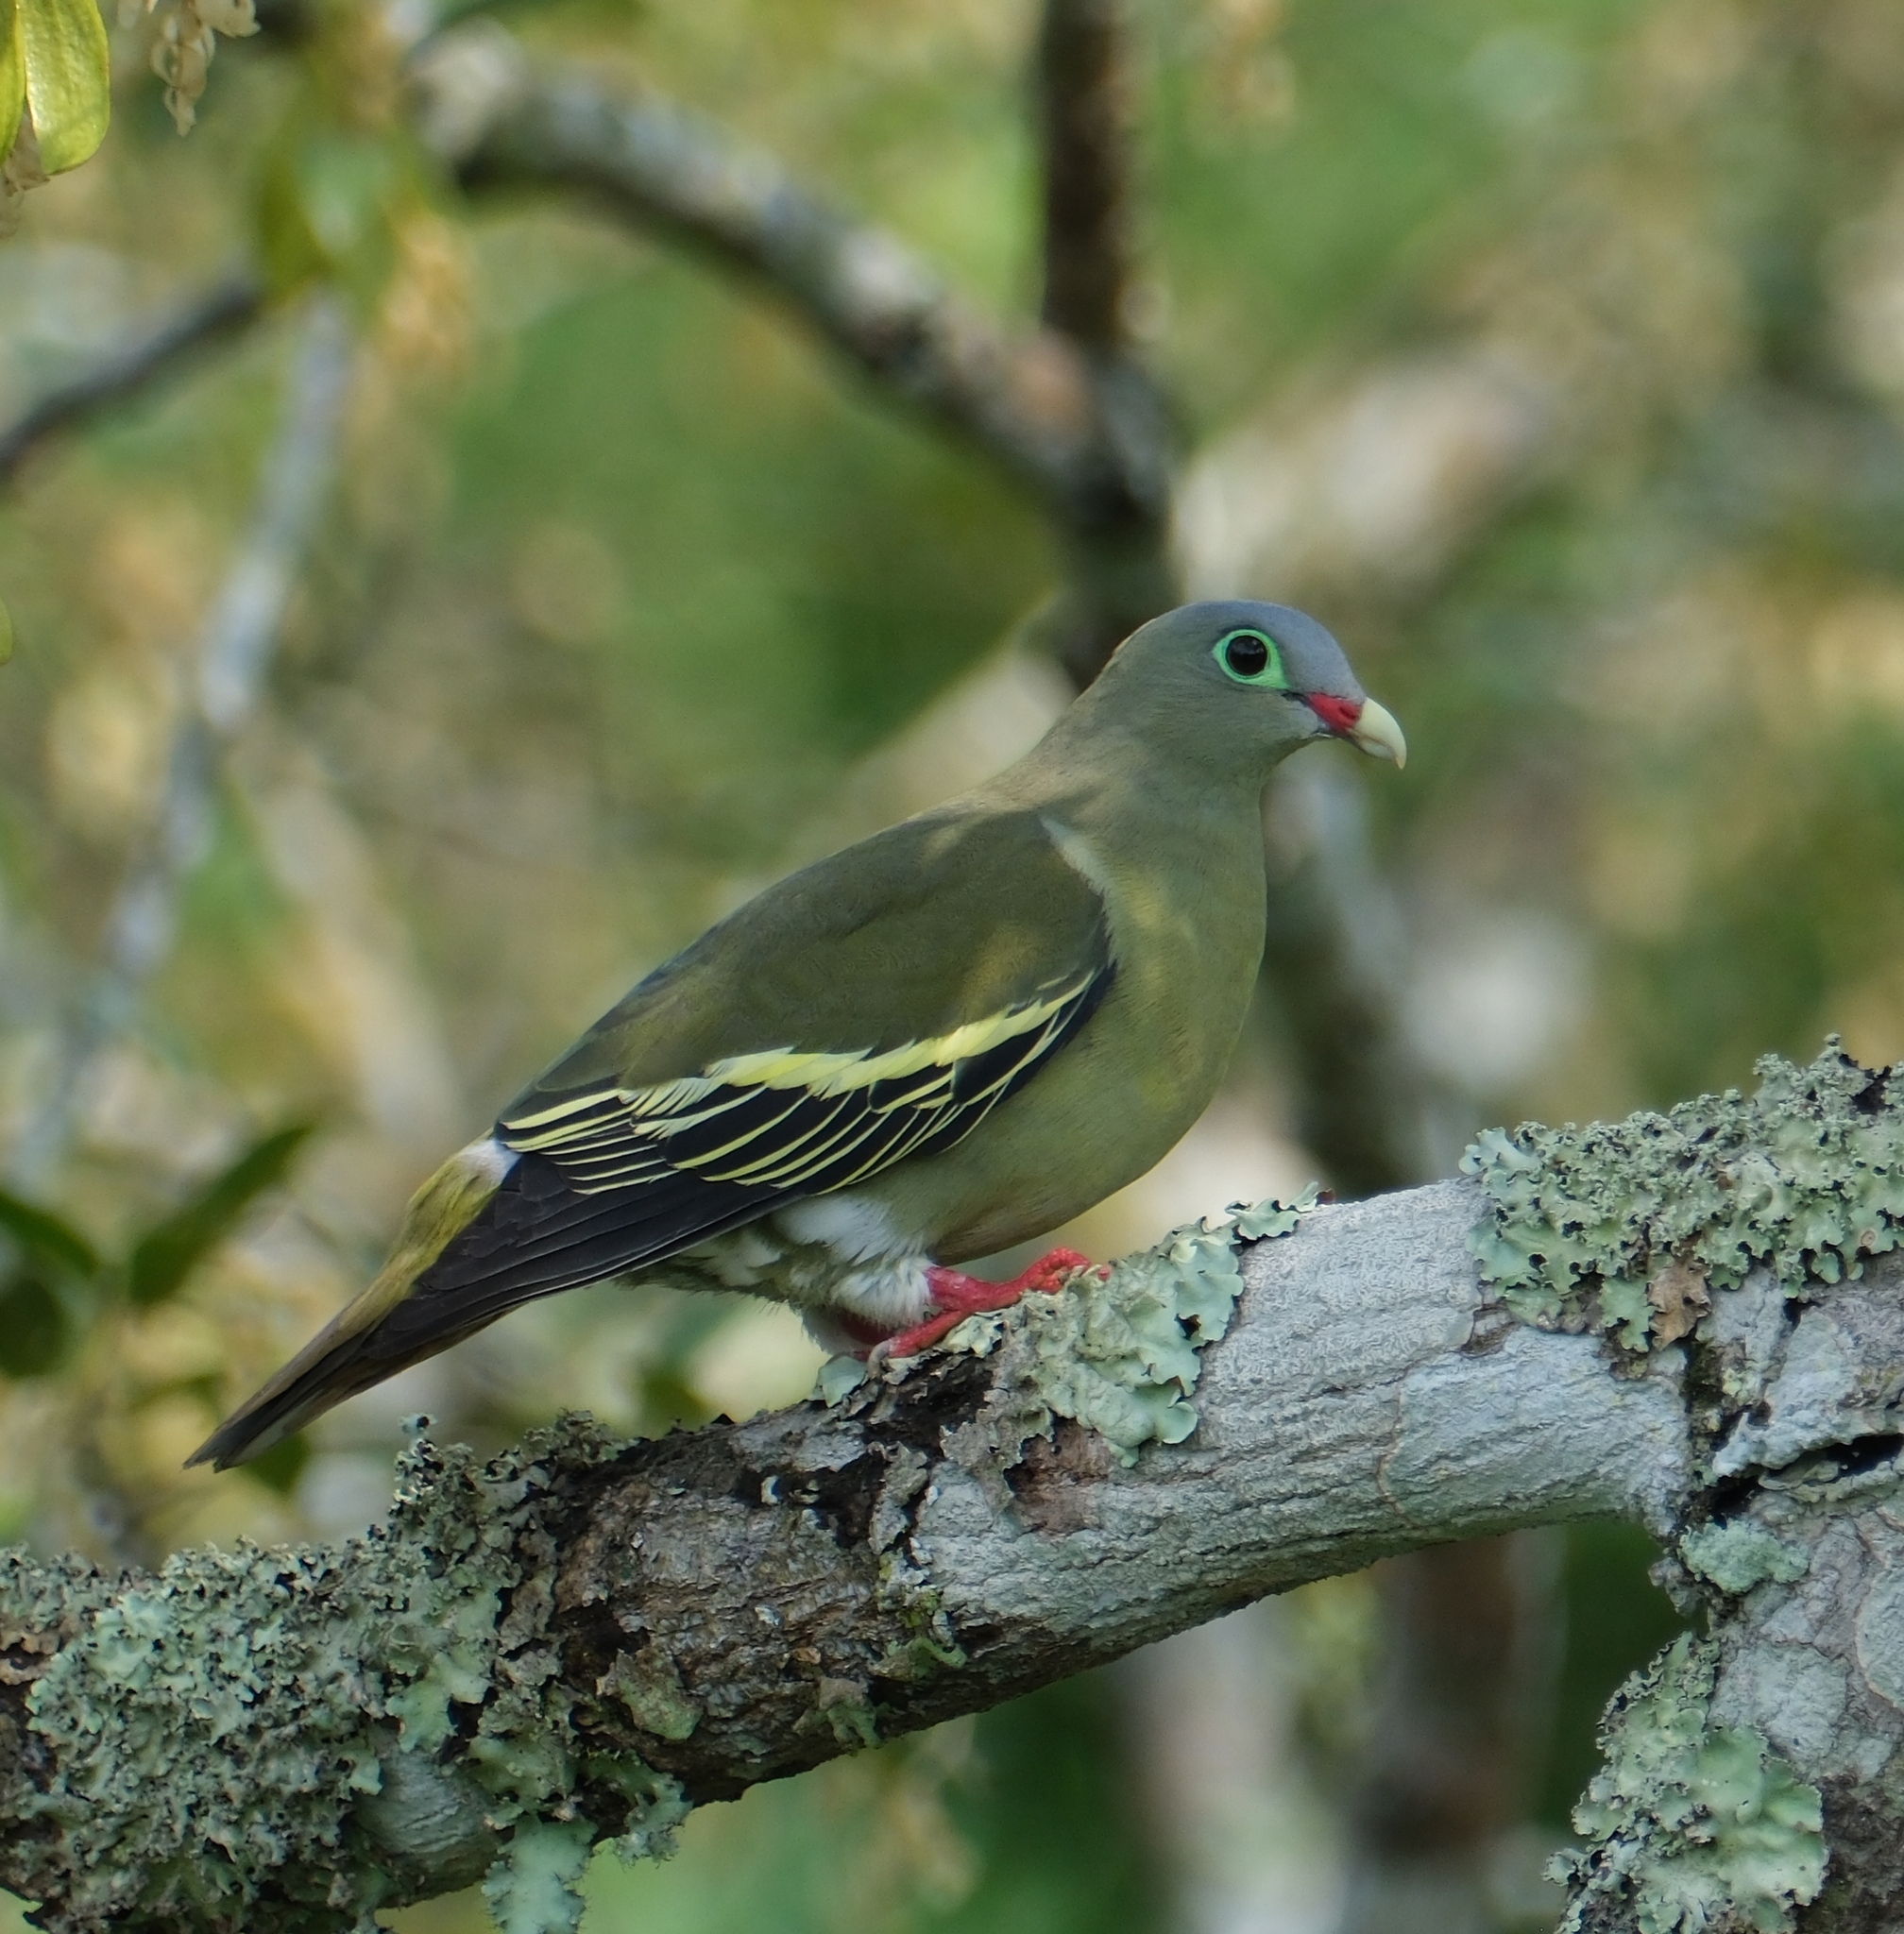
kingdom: Animalia
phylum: Chordata
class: Aves
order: Columbiformes
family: Columbidae
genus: Treron
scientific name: Treron curvirostra
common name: Thick-billed green pigeon
